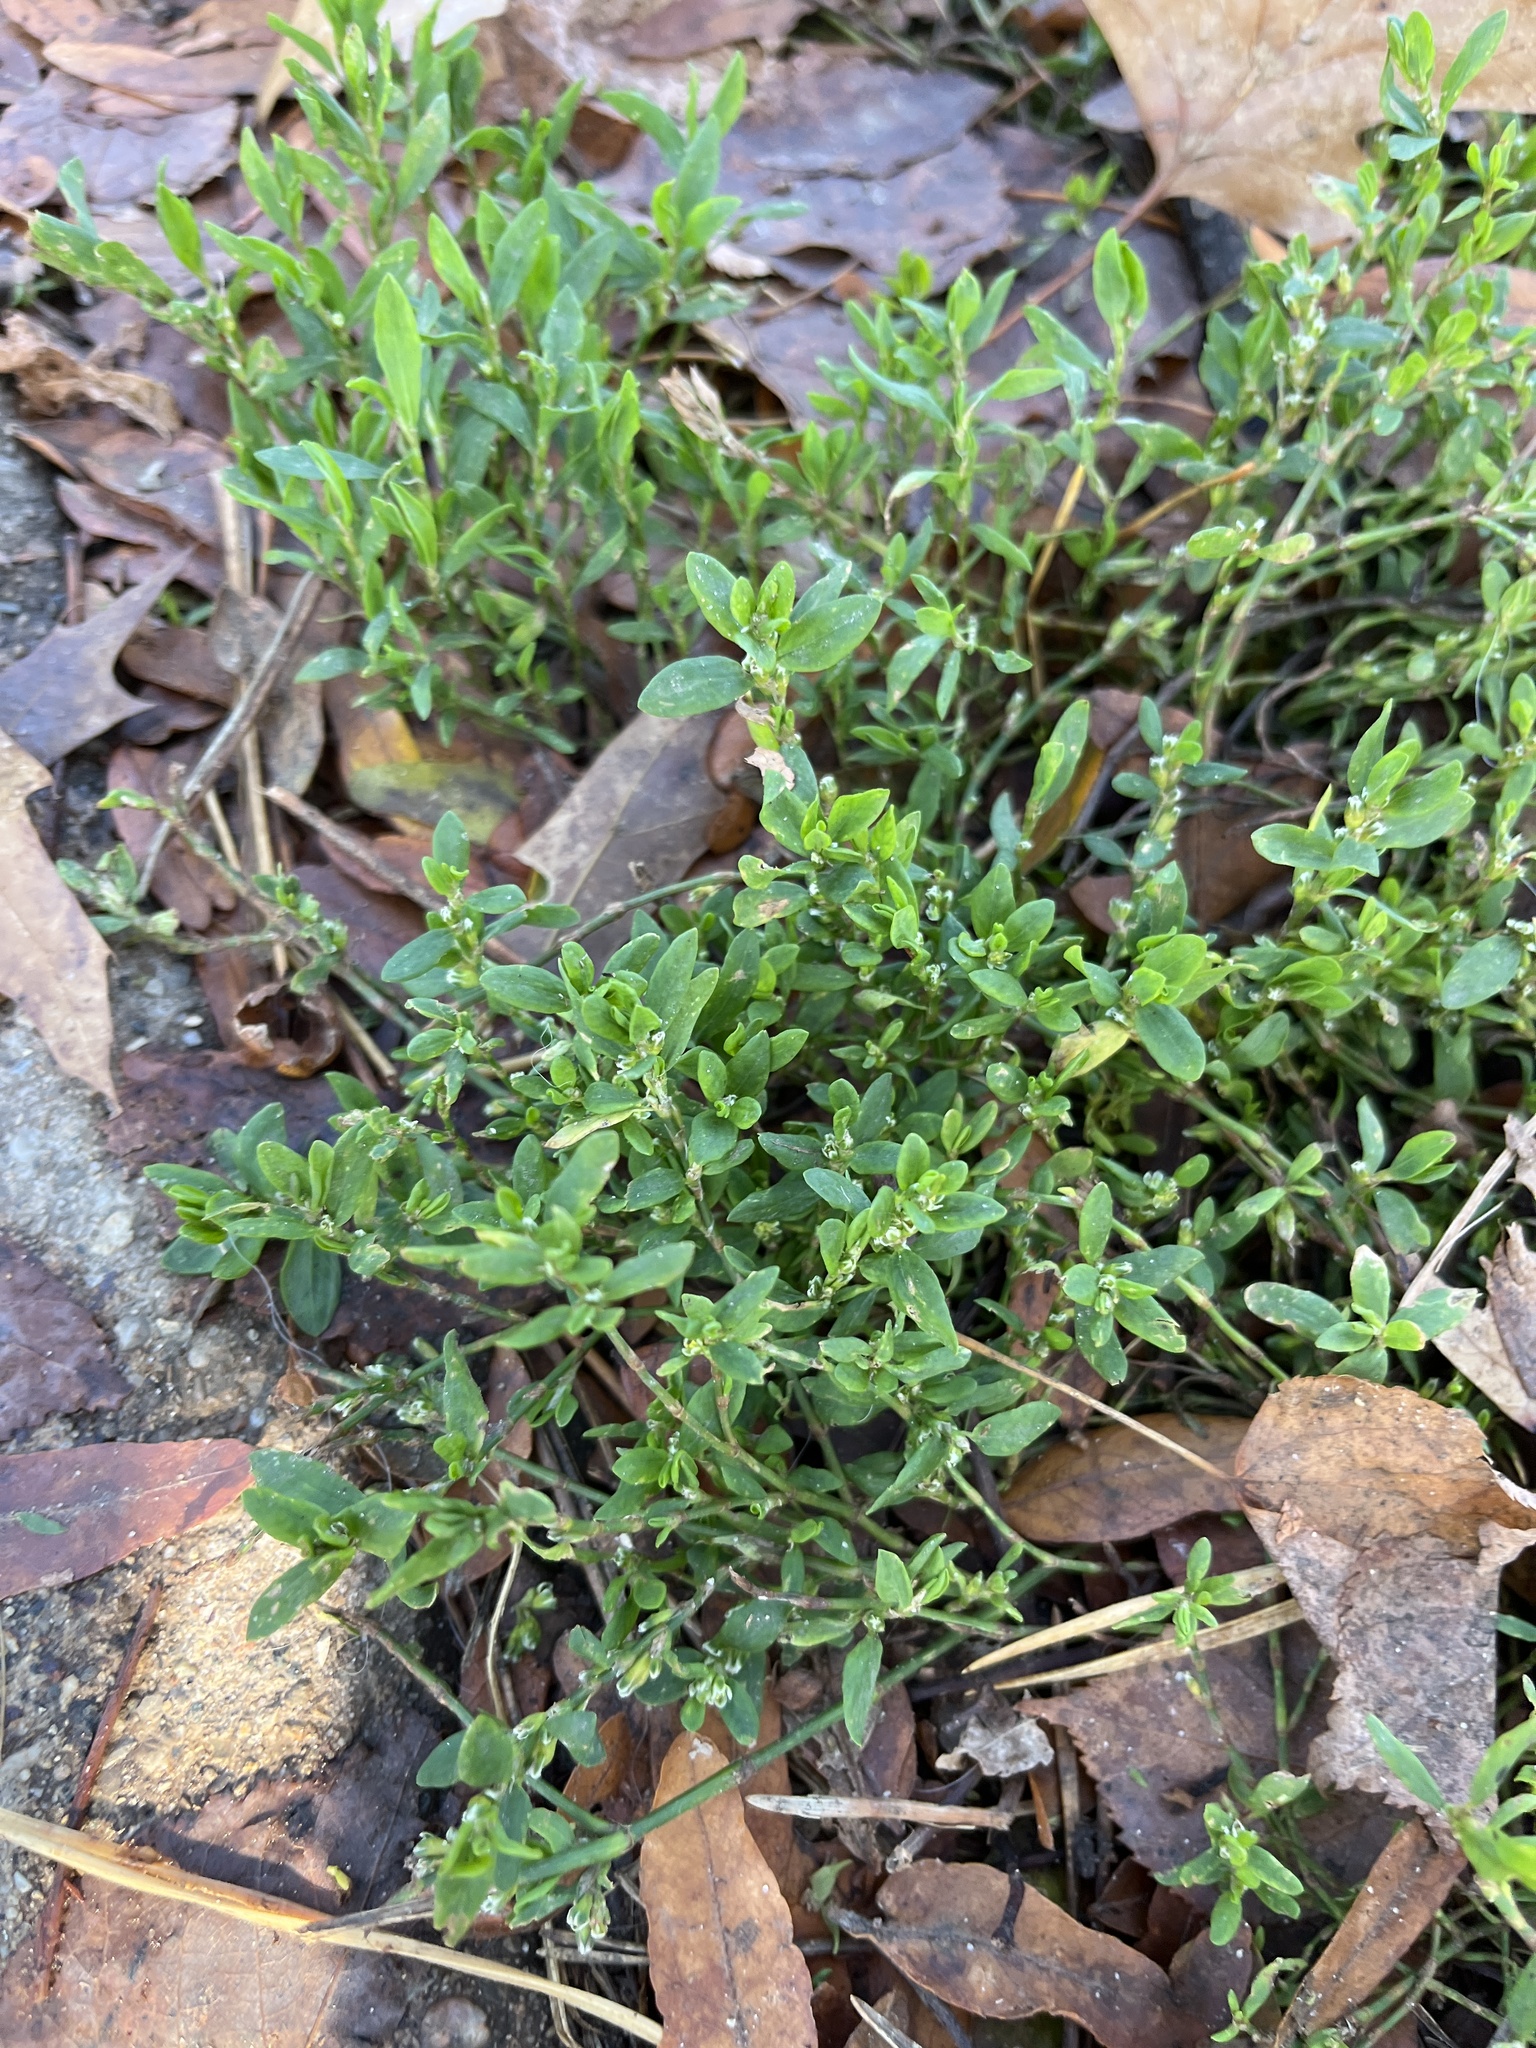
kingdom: Plantae
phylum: Tracheophyta
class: Magnoliopsida
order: Caryophyllales
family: Polygonaceae
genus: Polygonum
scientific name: Polygonum aviculare
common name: Prostrate knotweed
